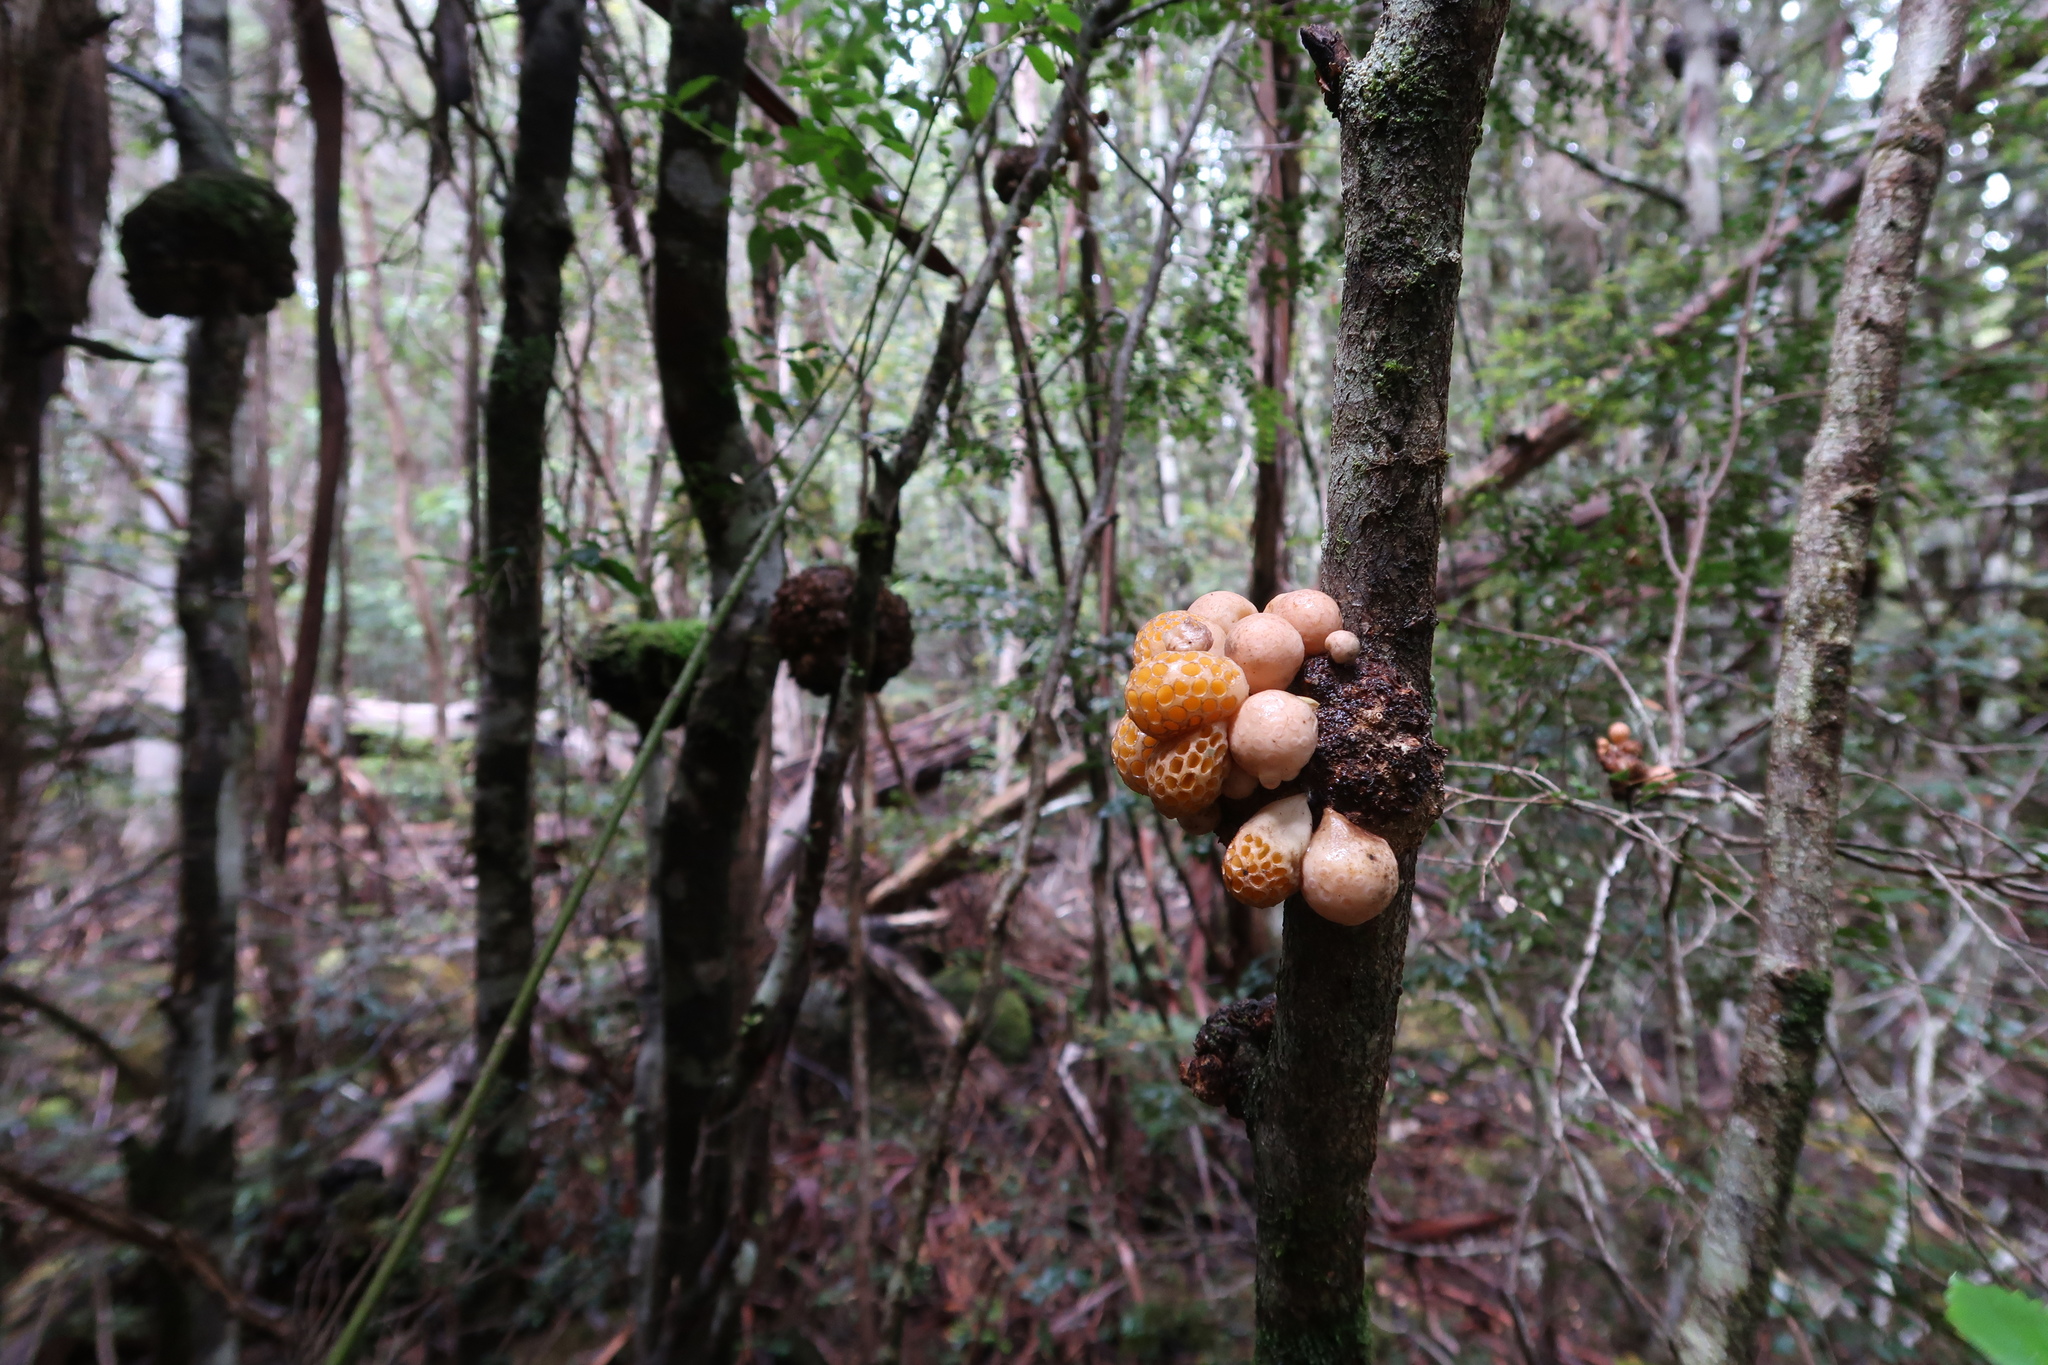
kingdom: Fungi
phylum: Ascomycota
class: Leotiomycetes
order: Cyttariales
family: Cyttariaceae
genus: Cyttaria
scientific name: Cyttaria gunnii
